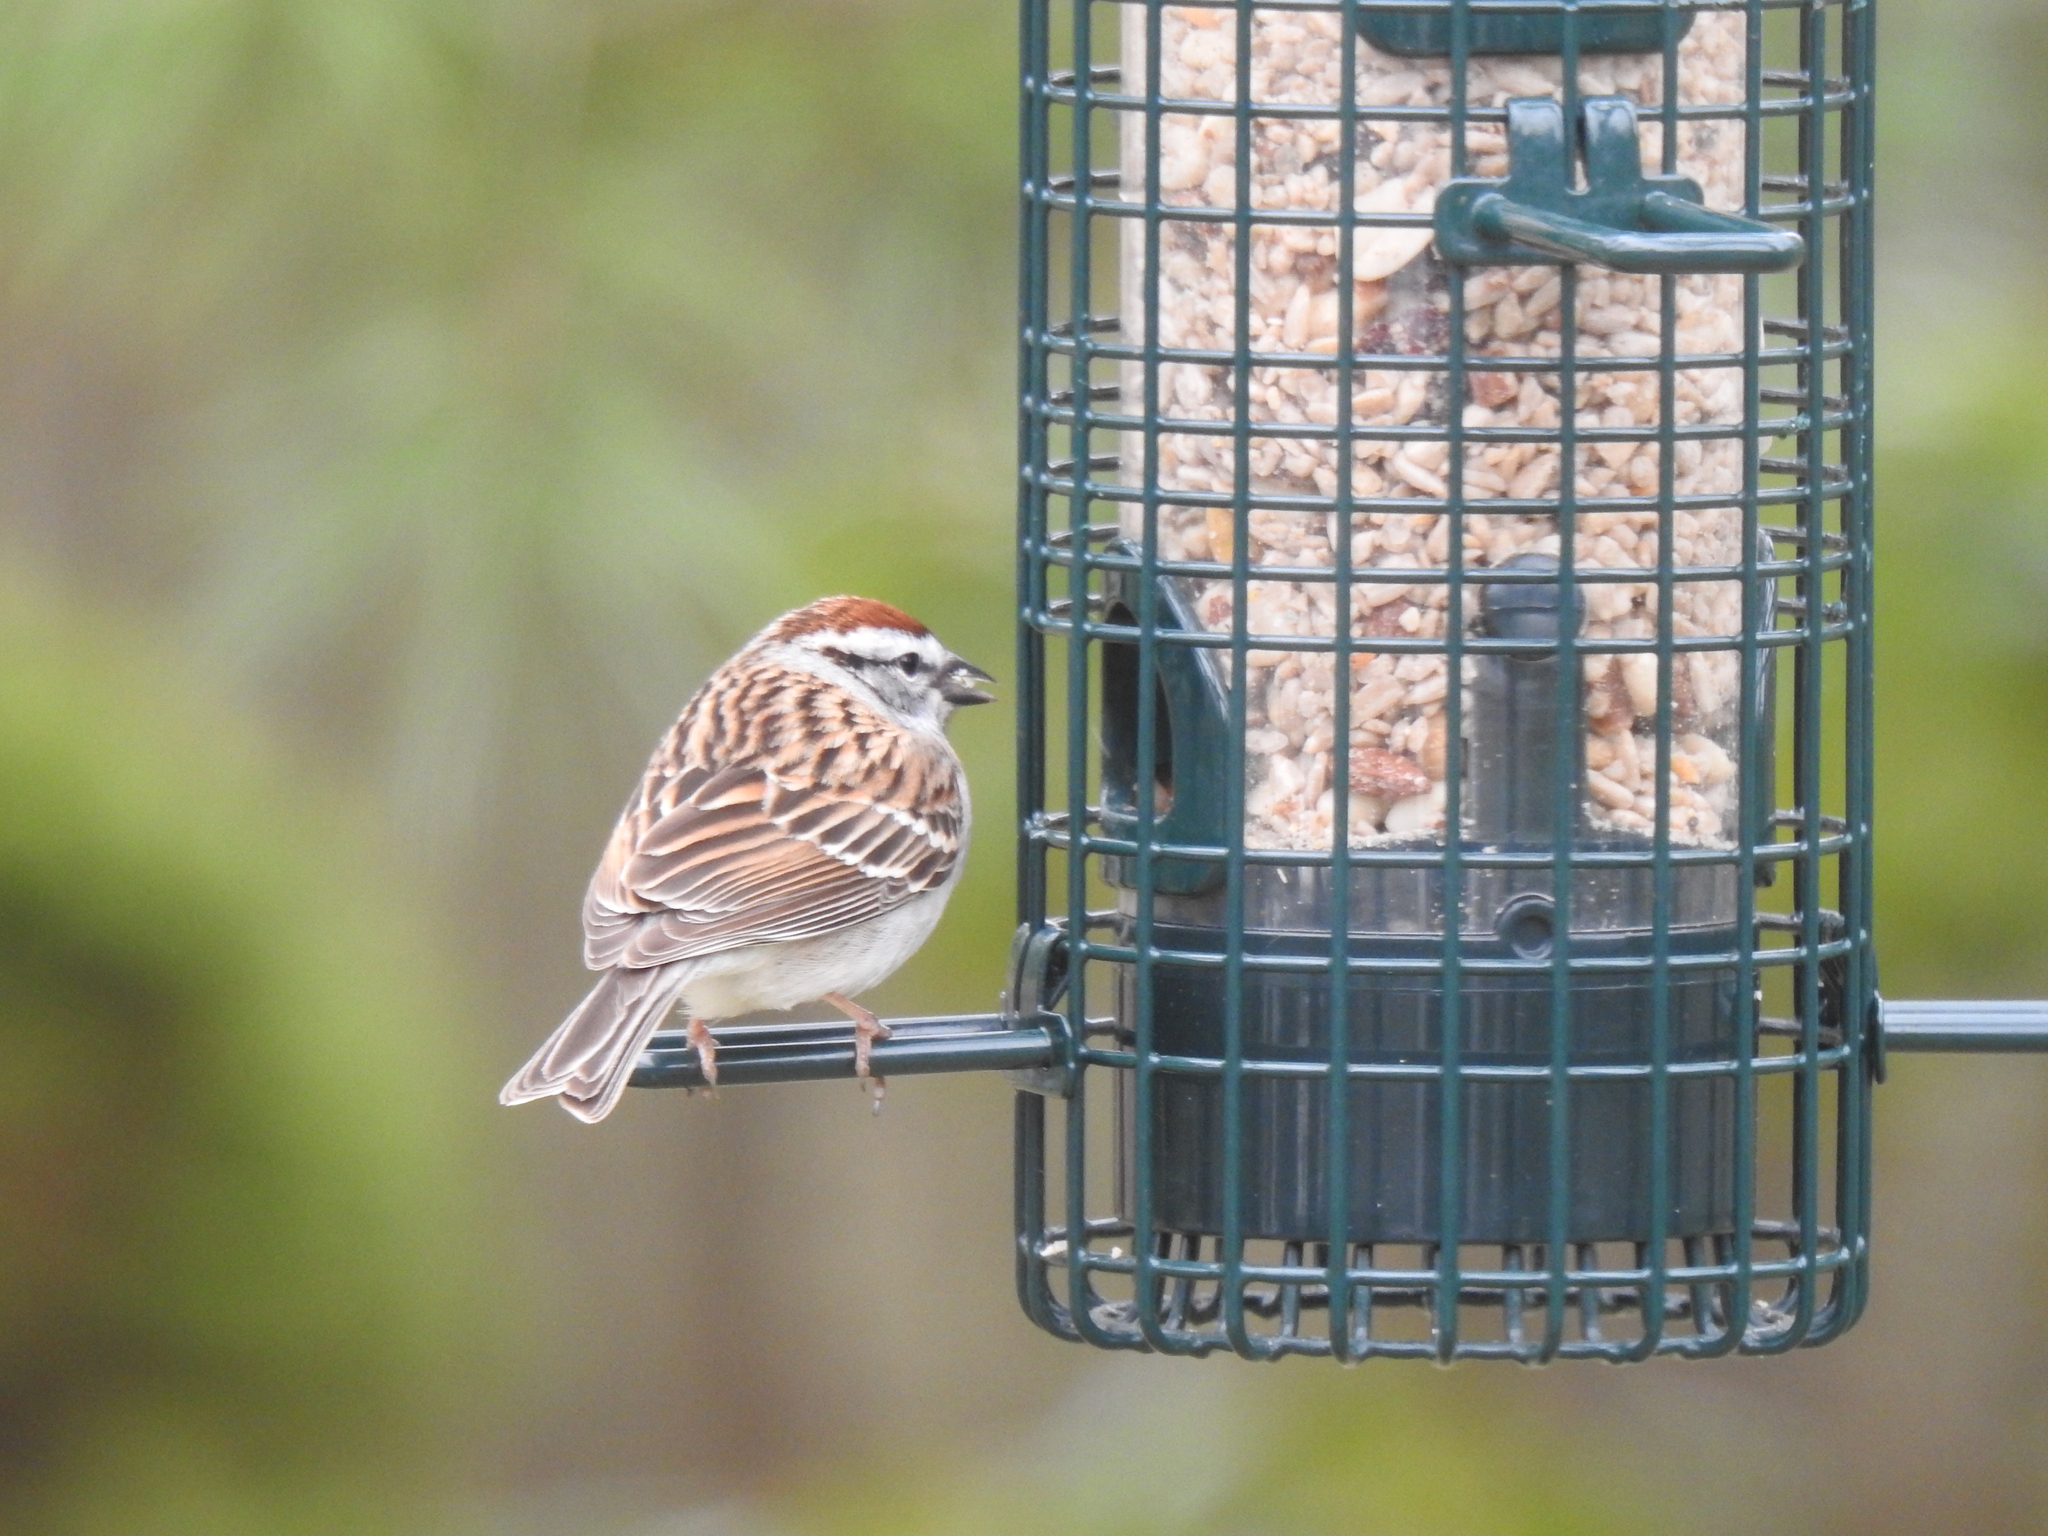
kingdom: Animalia
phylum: Chordata
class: Aves
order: Passeriformes
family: Passerellidae
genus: Spizella
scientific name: Spizella passerina
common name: Chipping sparrow
